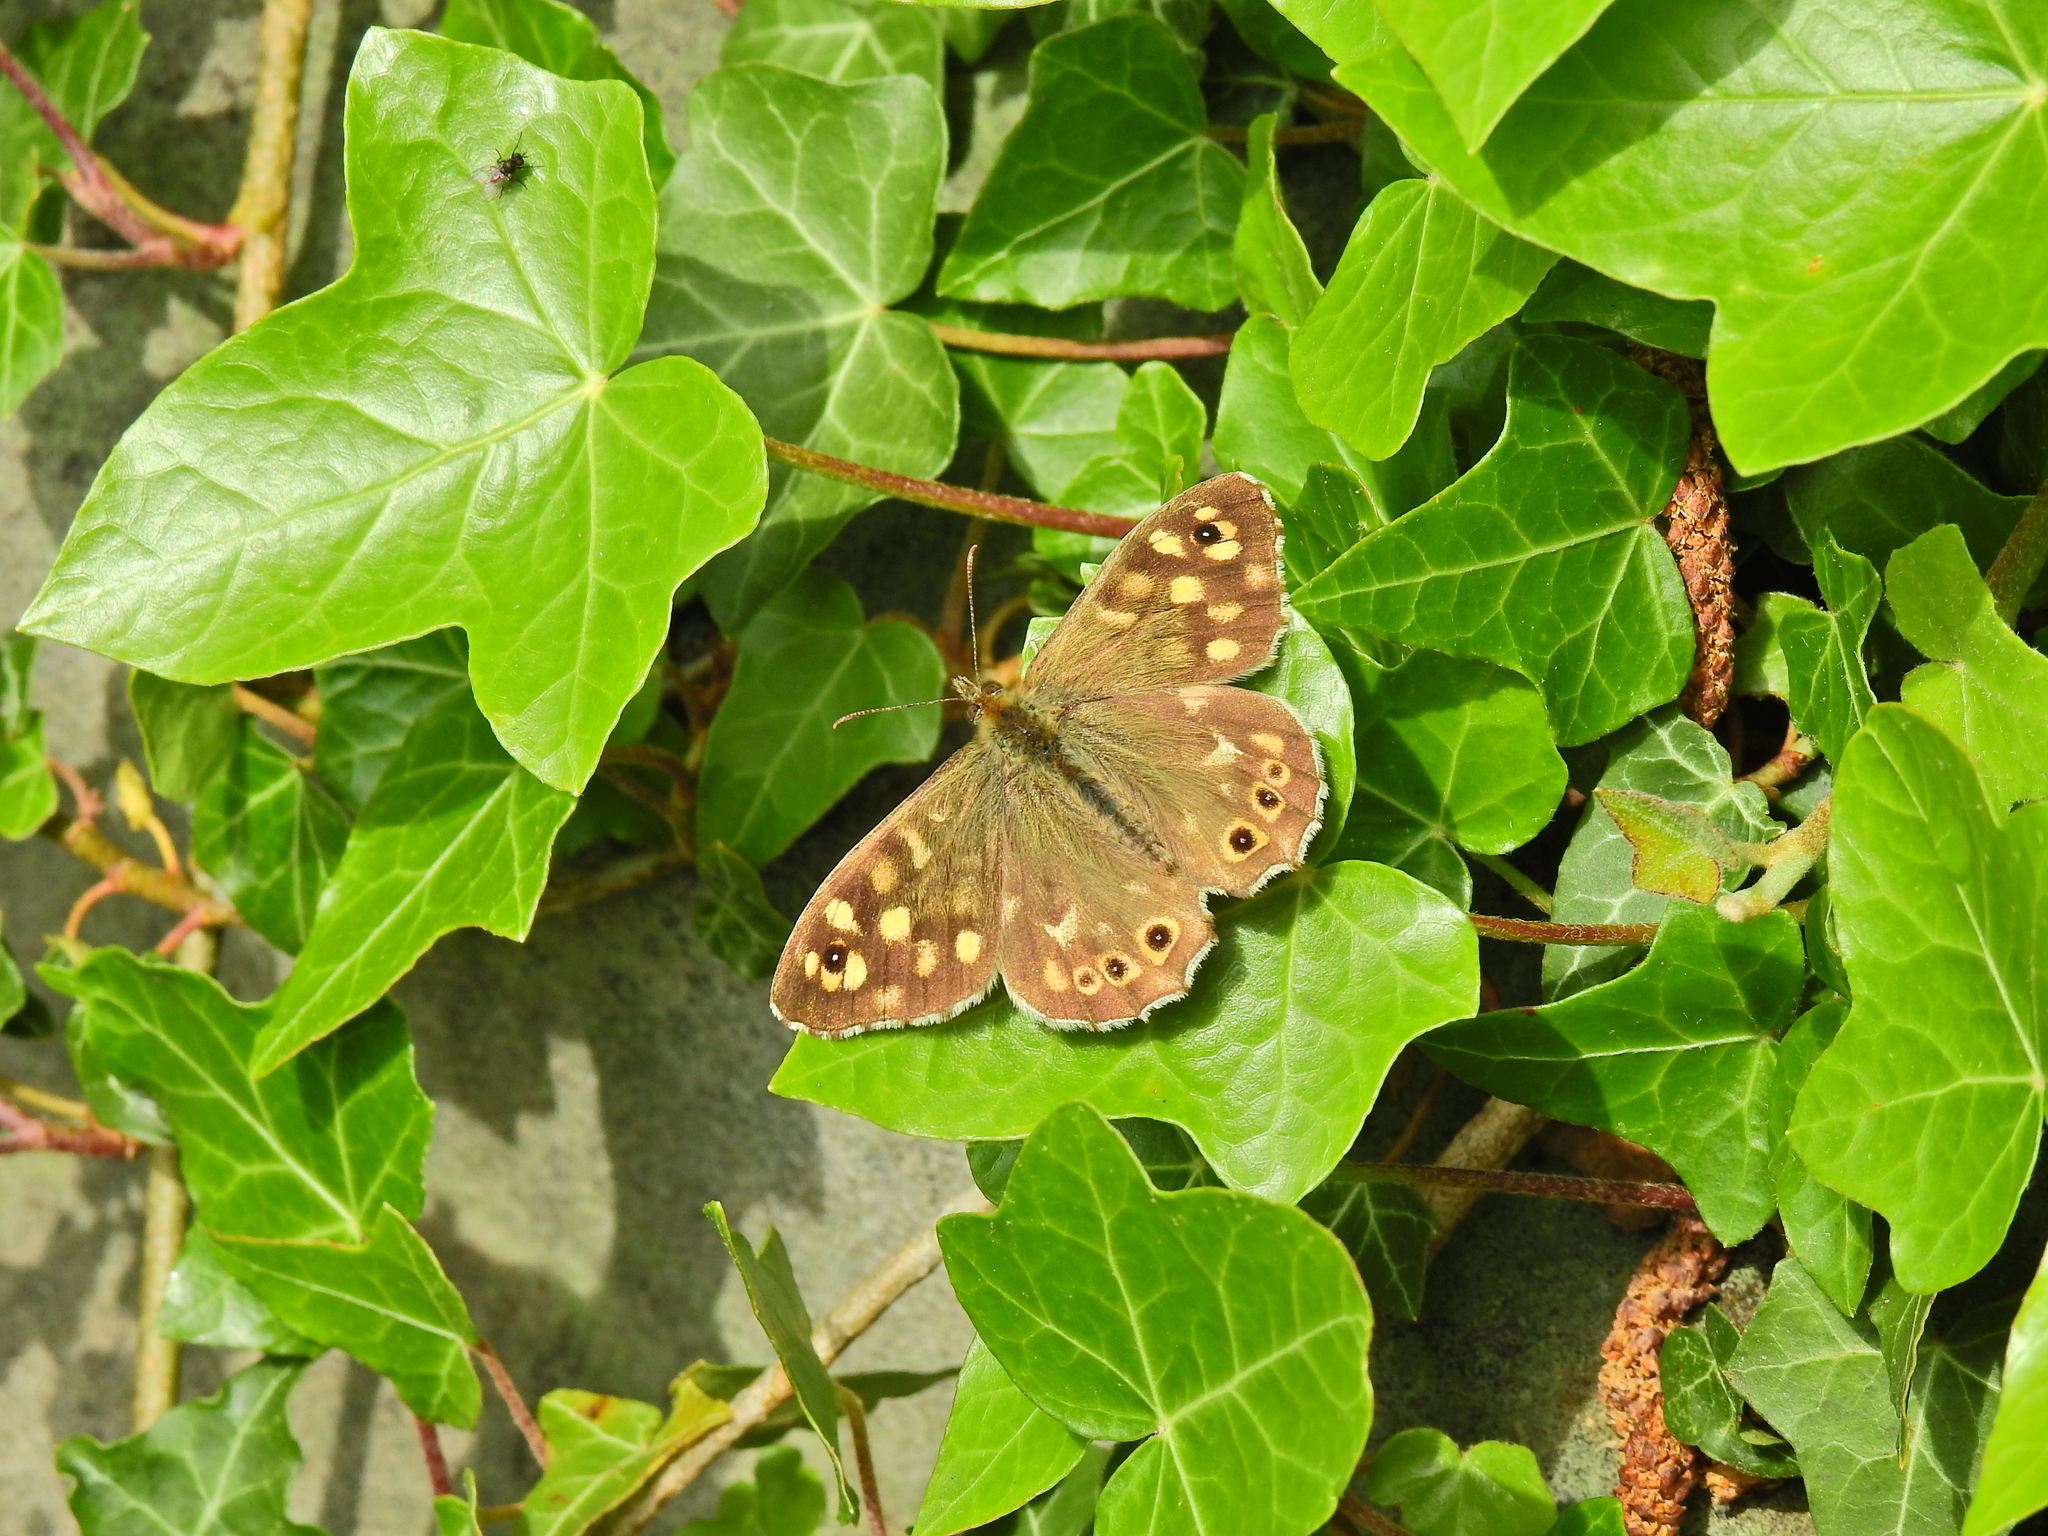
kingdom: Animalia
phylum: Arthropoda
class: Insecta
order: Lepidoptera
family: Nymphalidae
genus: Pararge
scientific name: Pararge aegeria
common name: Speckled wood
